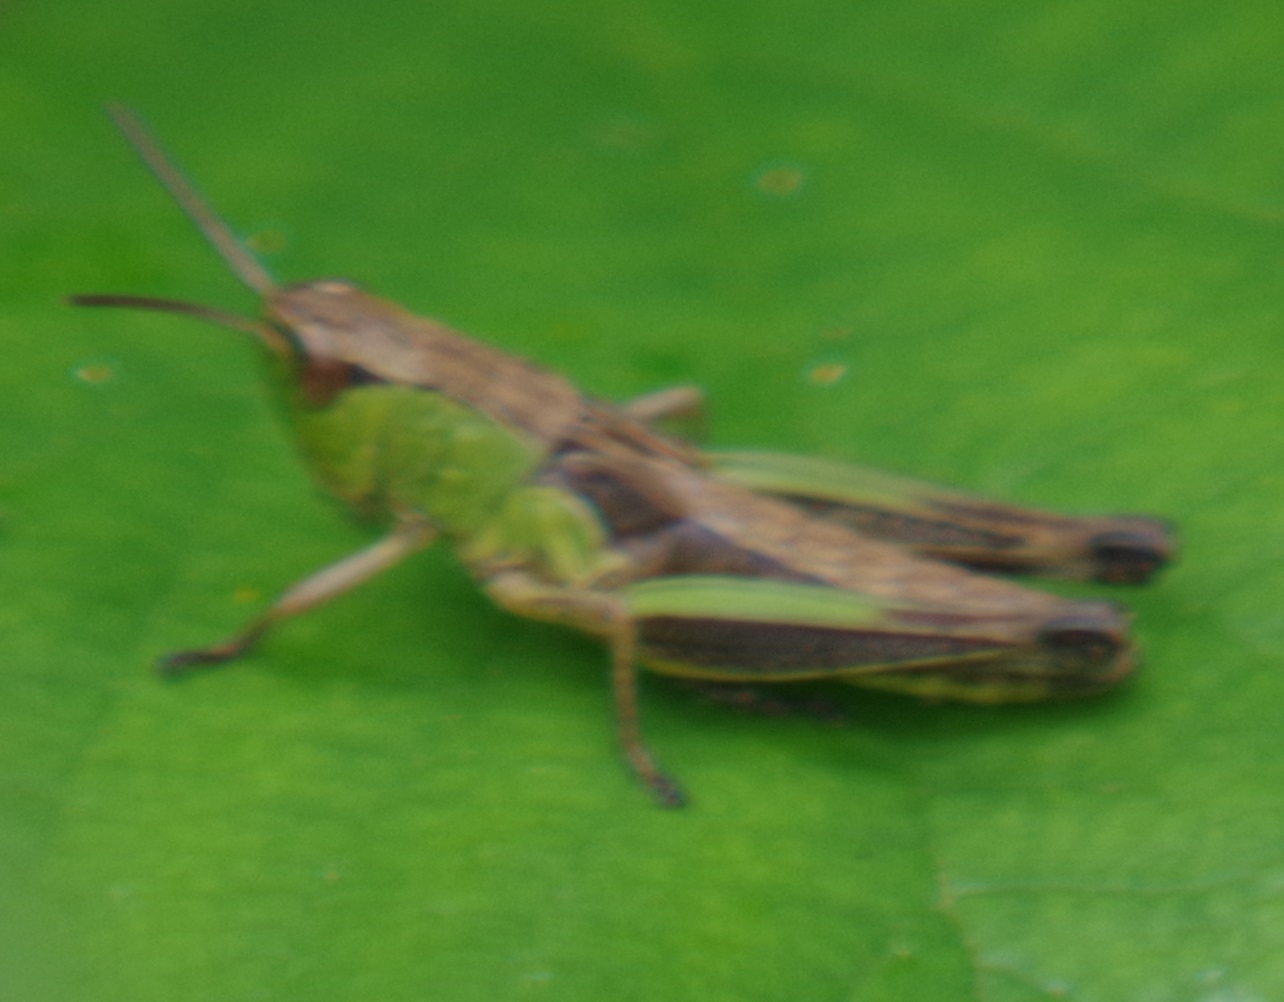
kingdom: Animalia
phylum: Arthropoda
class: Insecta
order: Orthoptera
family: Acrididae
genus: Pseudochorthippus
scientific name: Pseudochorthippus parallelus
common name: Meadow grasshopper
